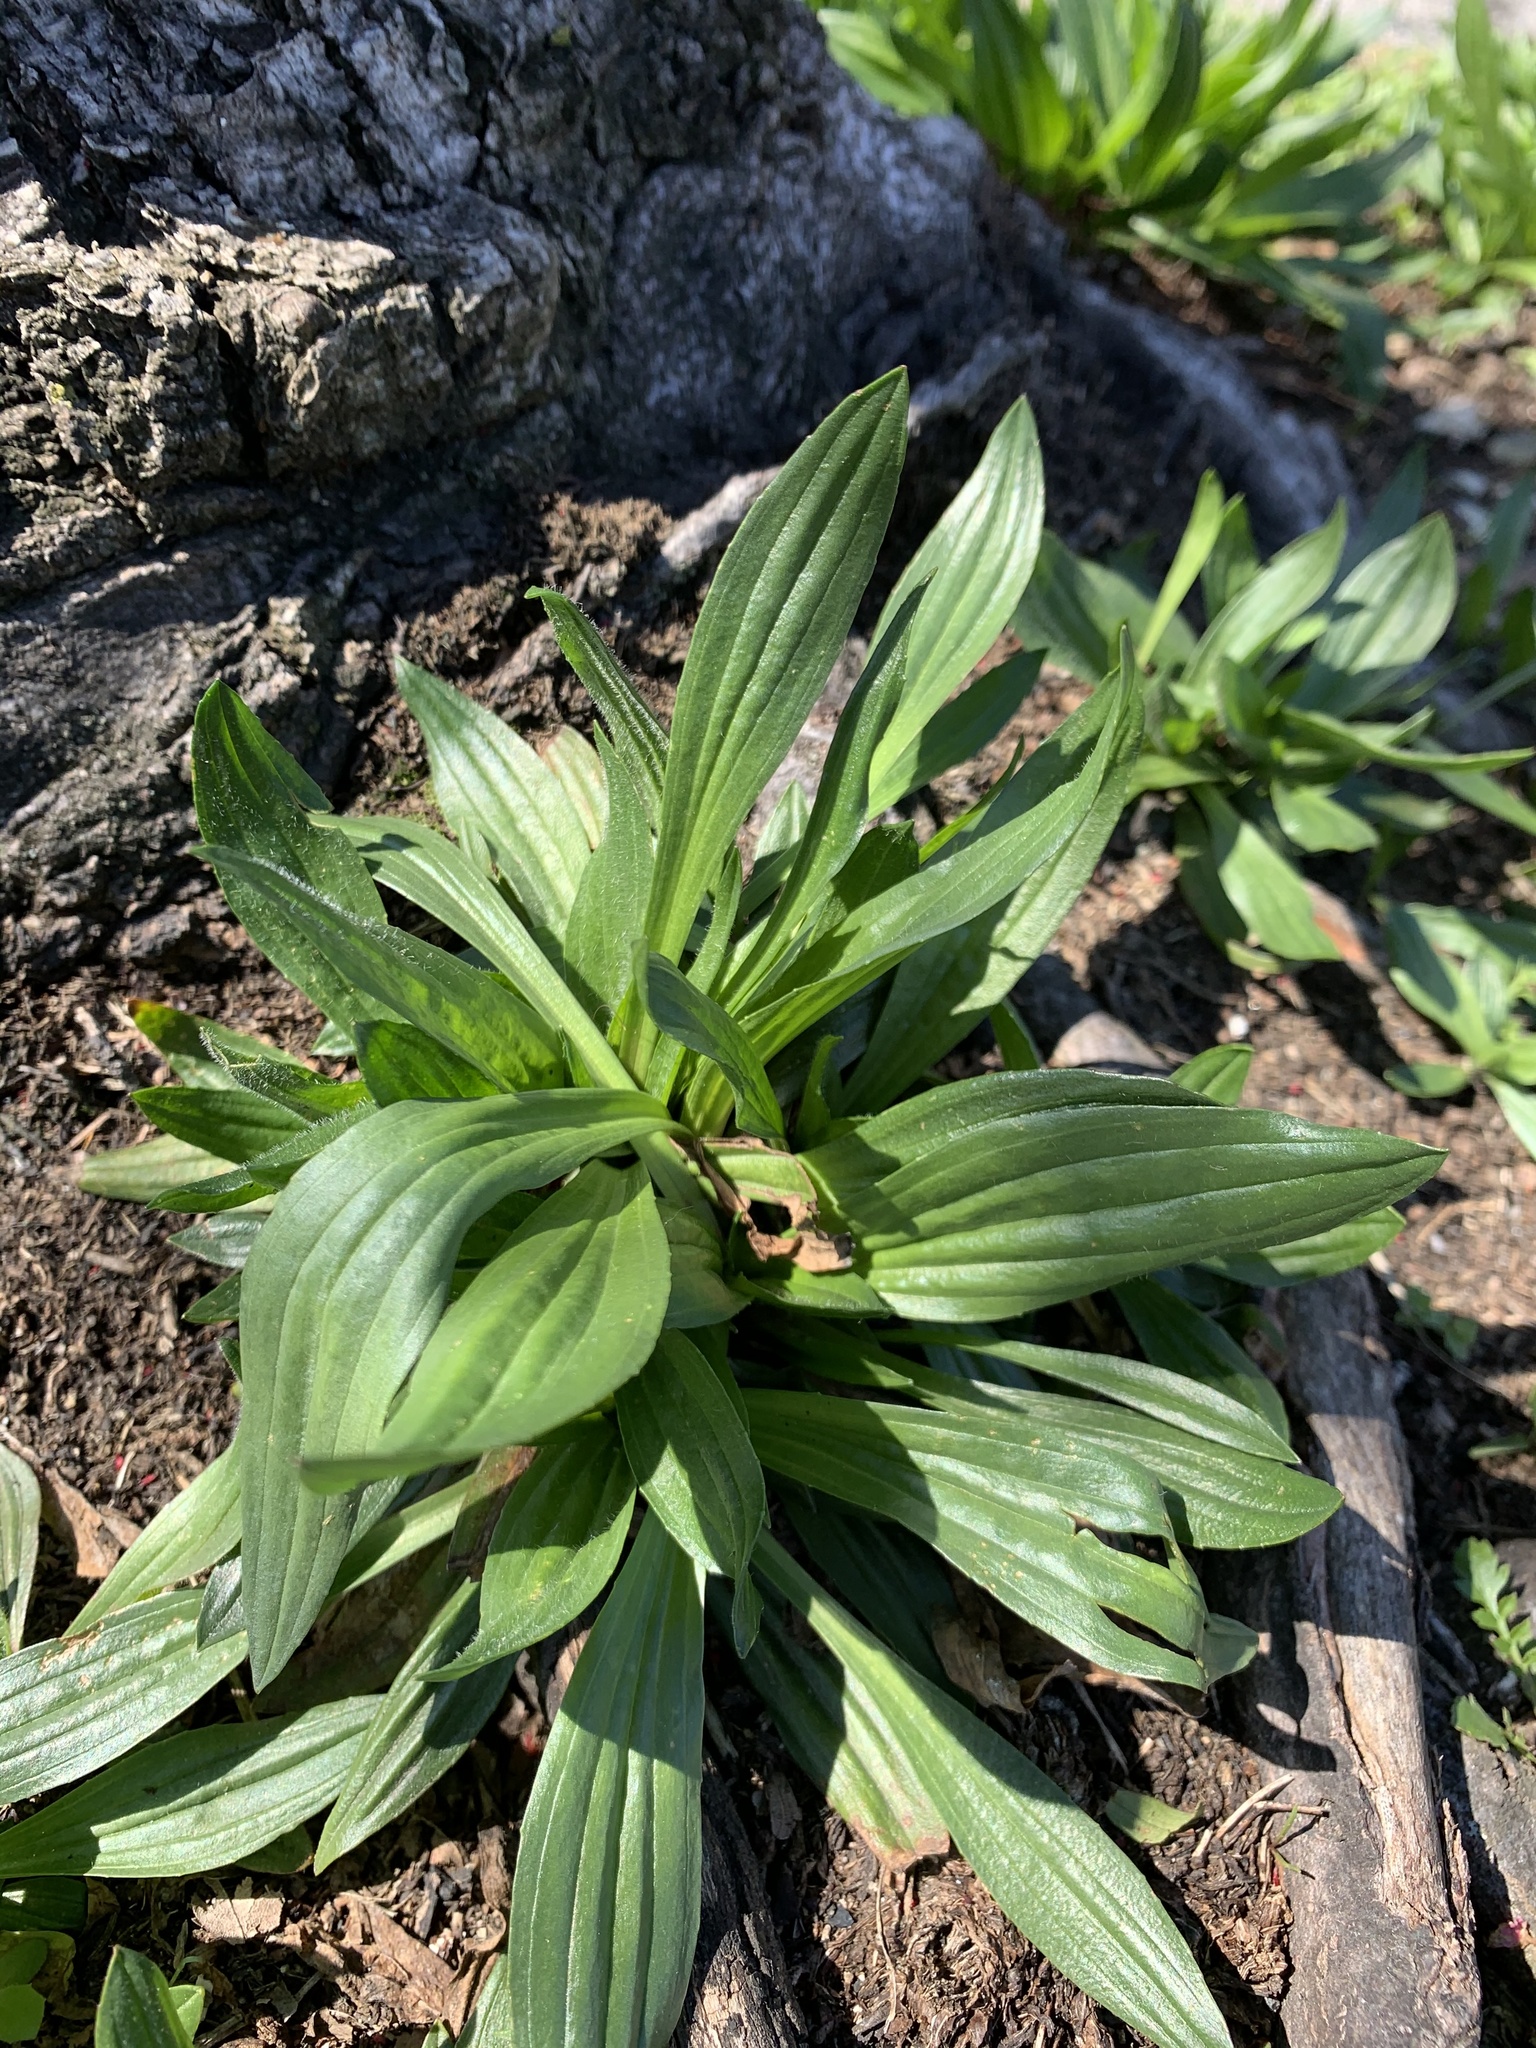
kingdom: Plantae
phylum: Tracheophyta
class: Magnoliopsida
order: Lamiales
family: Plantaginaceae
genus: Plantago
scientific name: Plantago lanceolata
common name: Ribwort plantain
